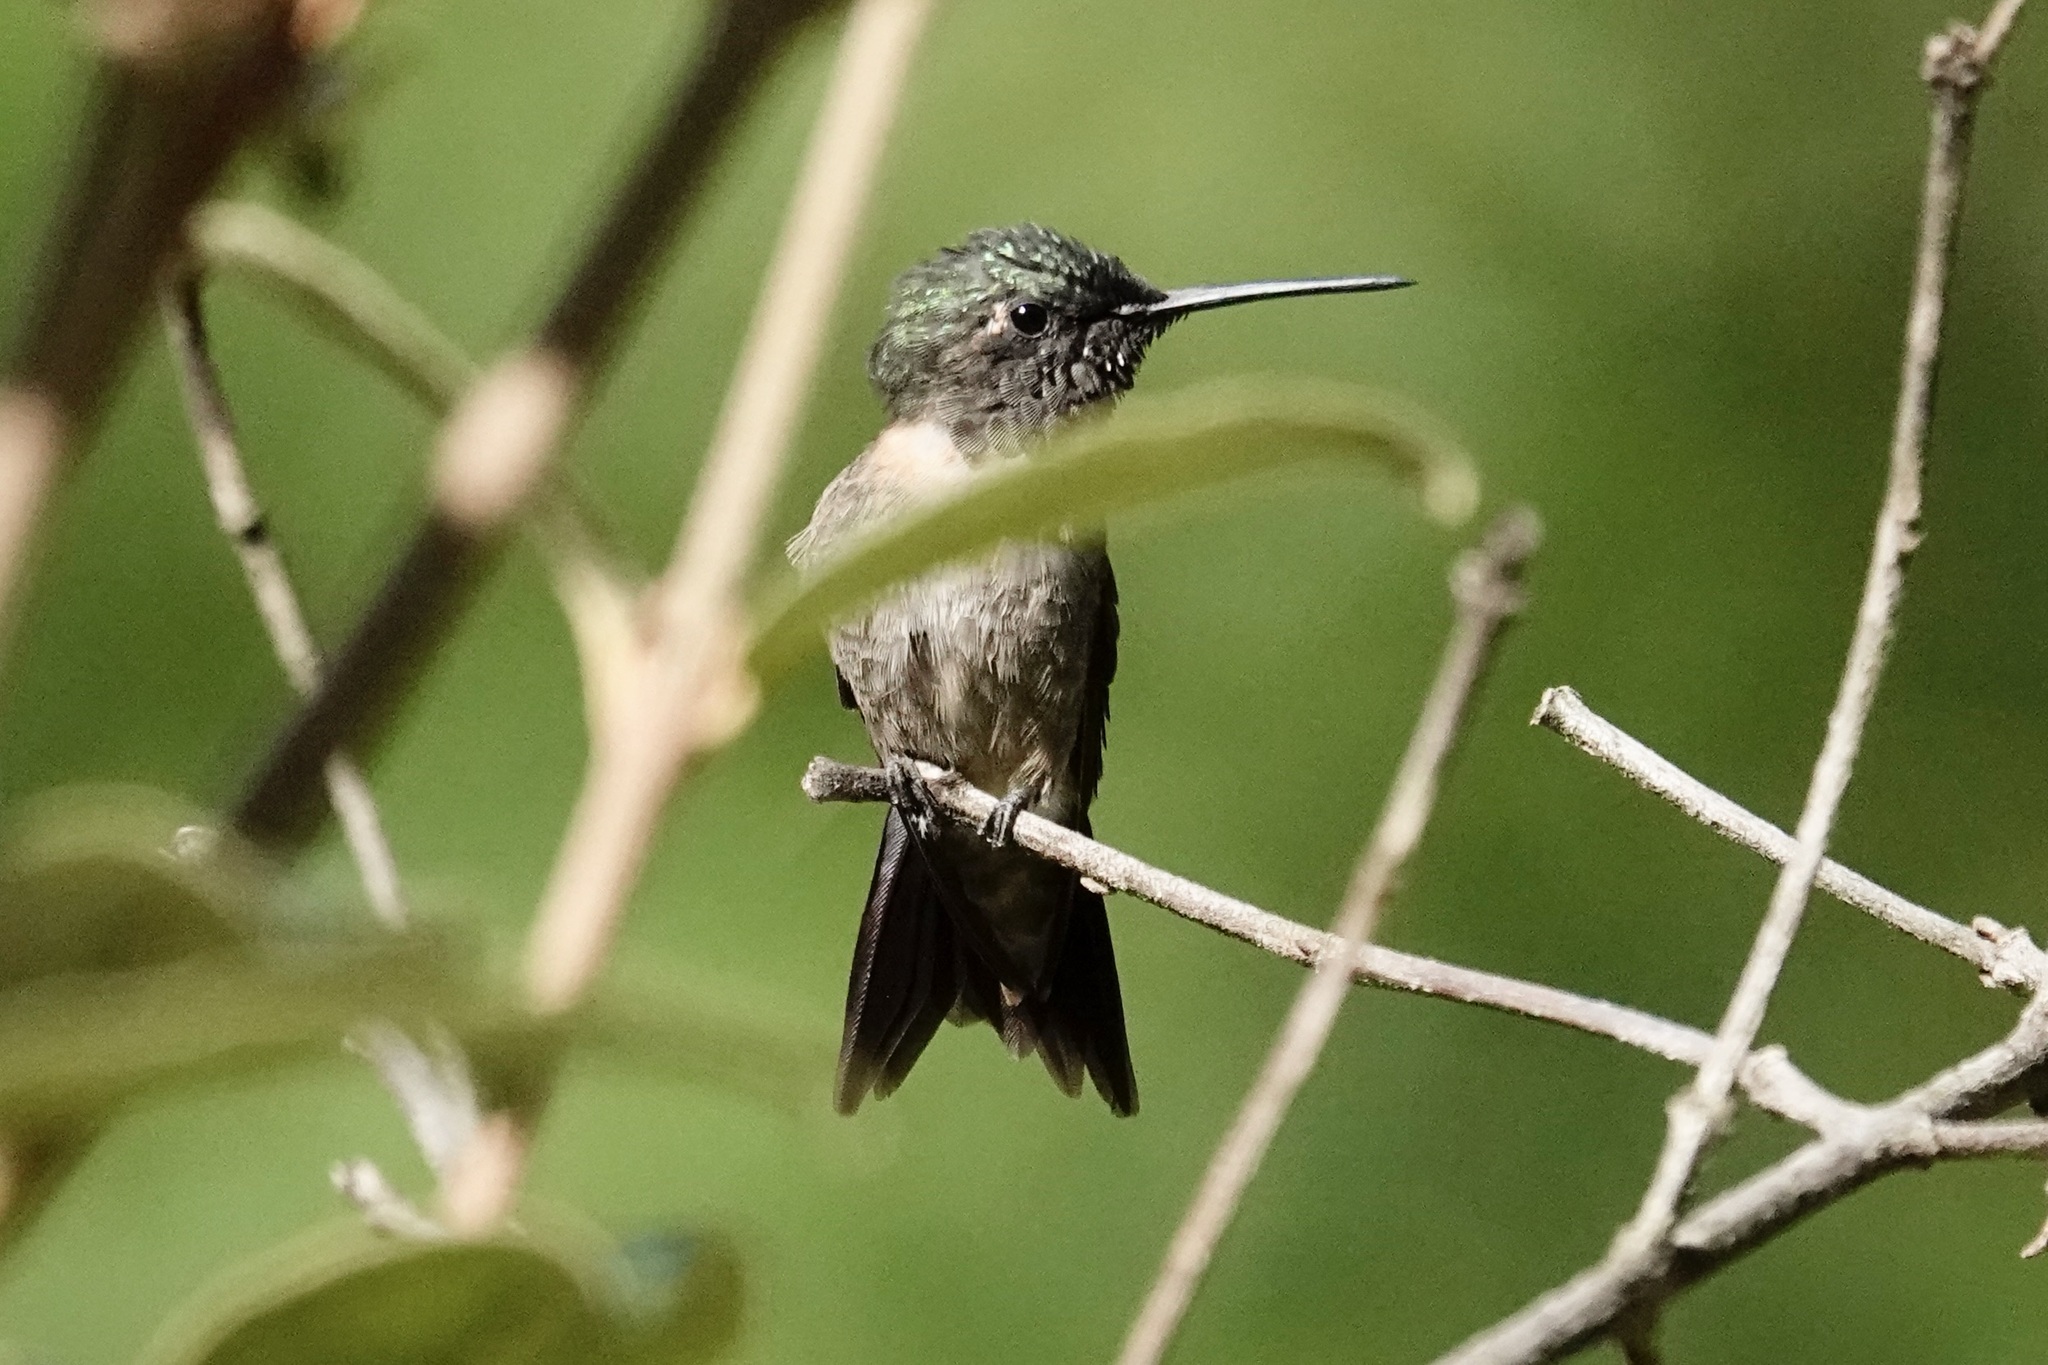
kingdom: Animalia
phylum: Chordata
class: Aves
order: Apodiformes
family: Trochilidae
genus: Archilochus
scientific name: Archilochus colubris
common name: Ruby-throated hummingbird
